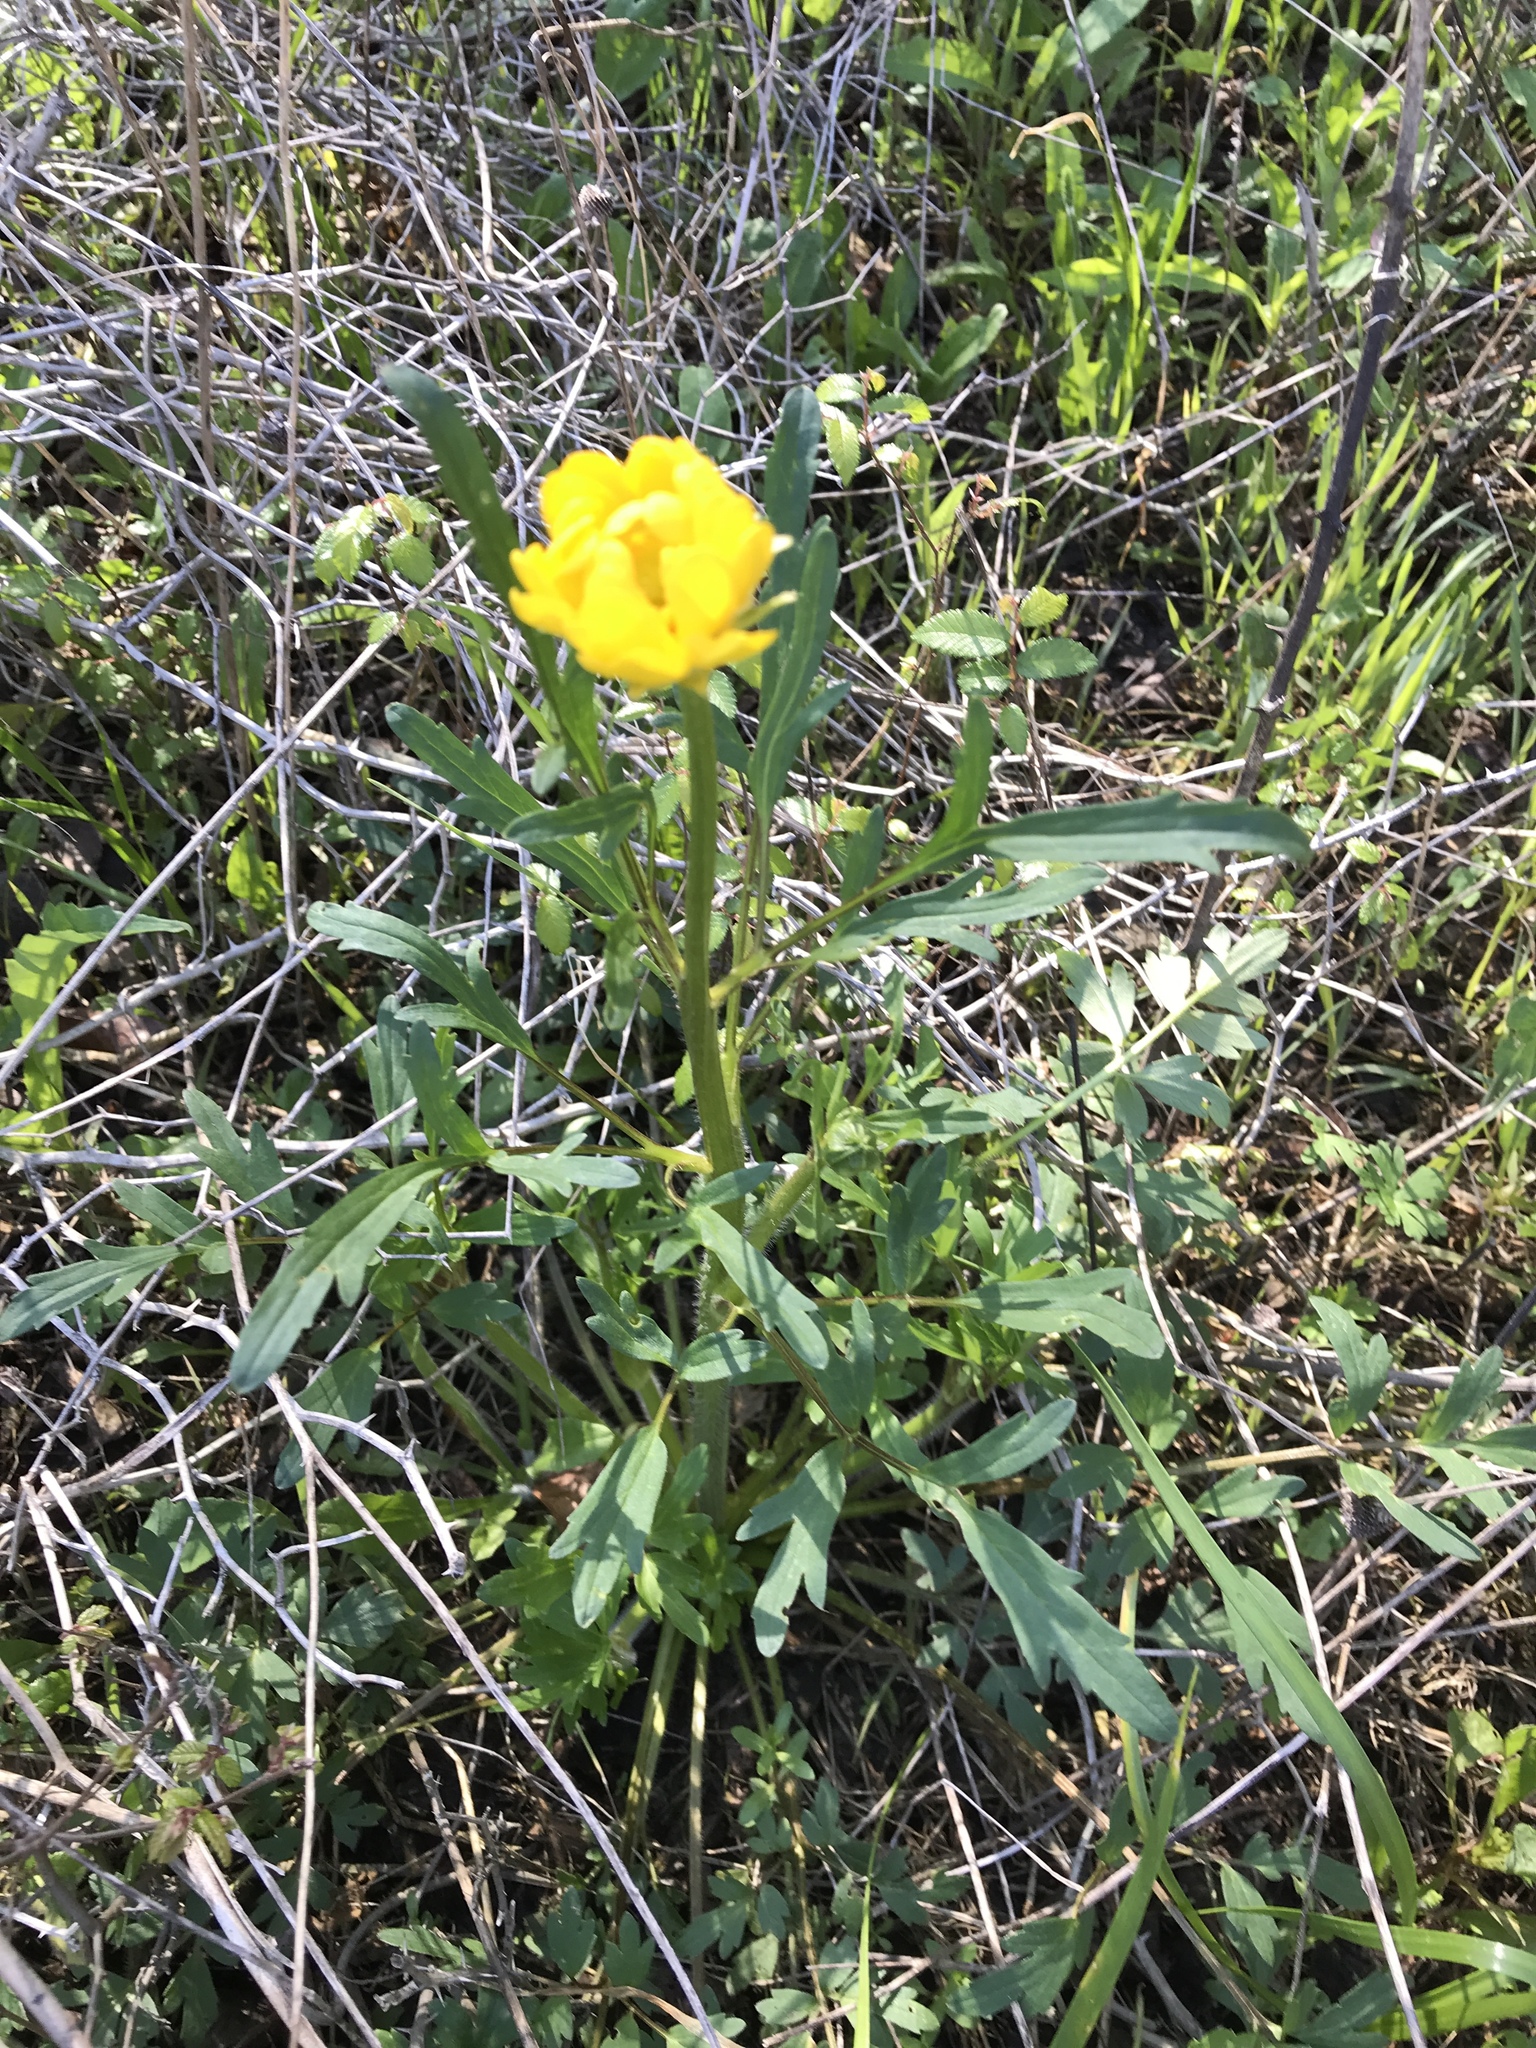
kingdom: Plantae
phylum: Tracheophyta
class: Magnoliopsida
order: Ranunculales
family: Ranunculaceae
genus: Ranunculus
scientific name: Ranunculus macranthus
